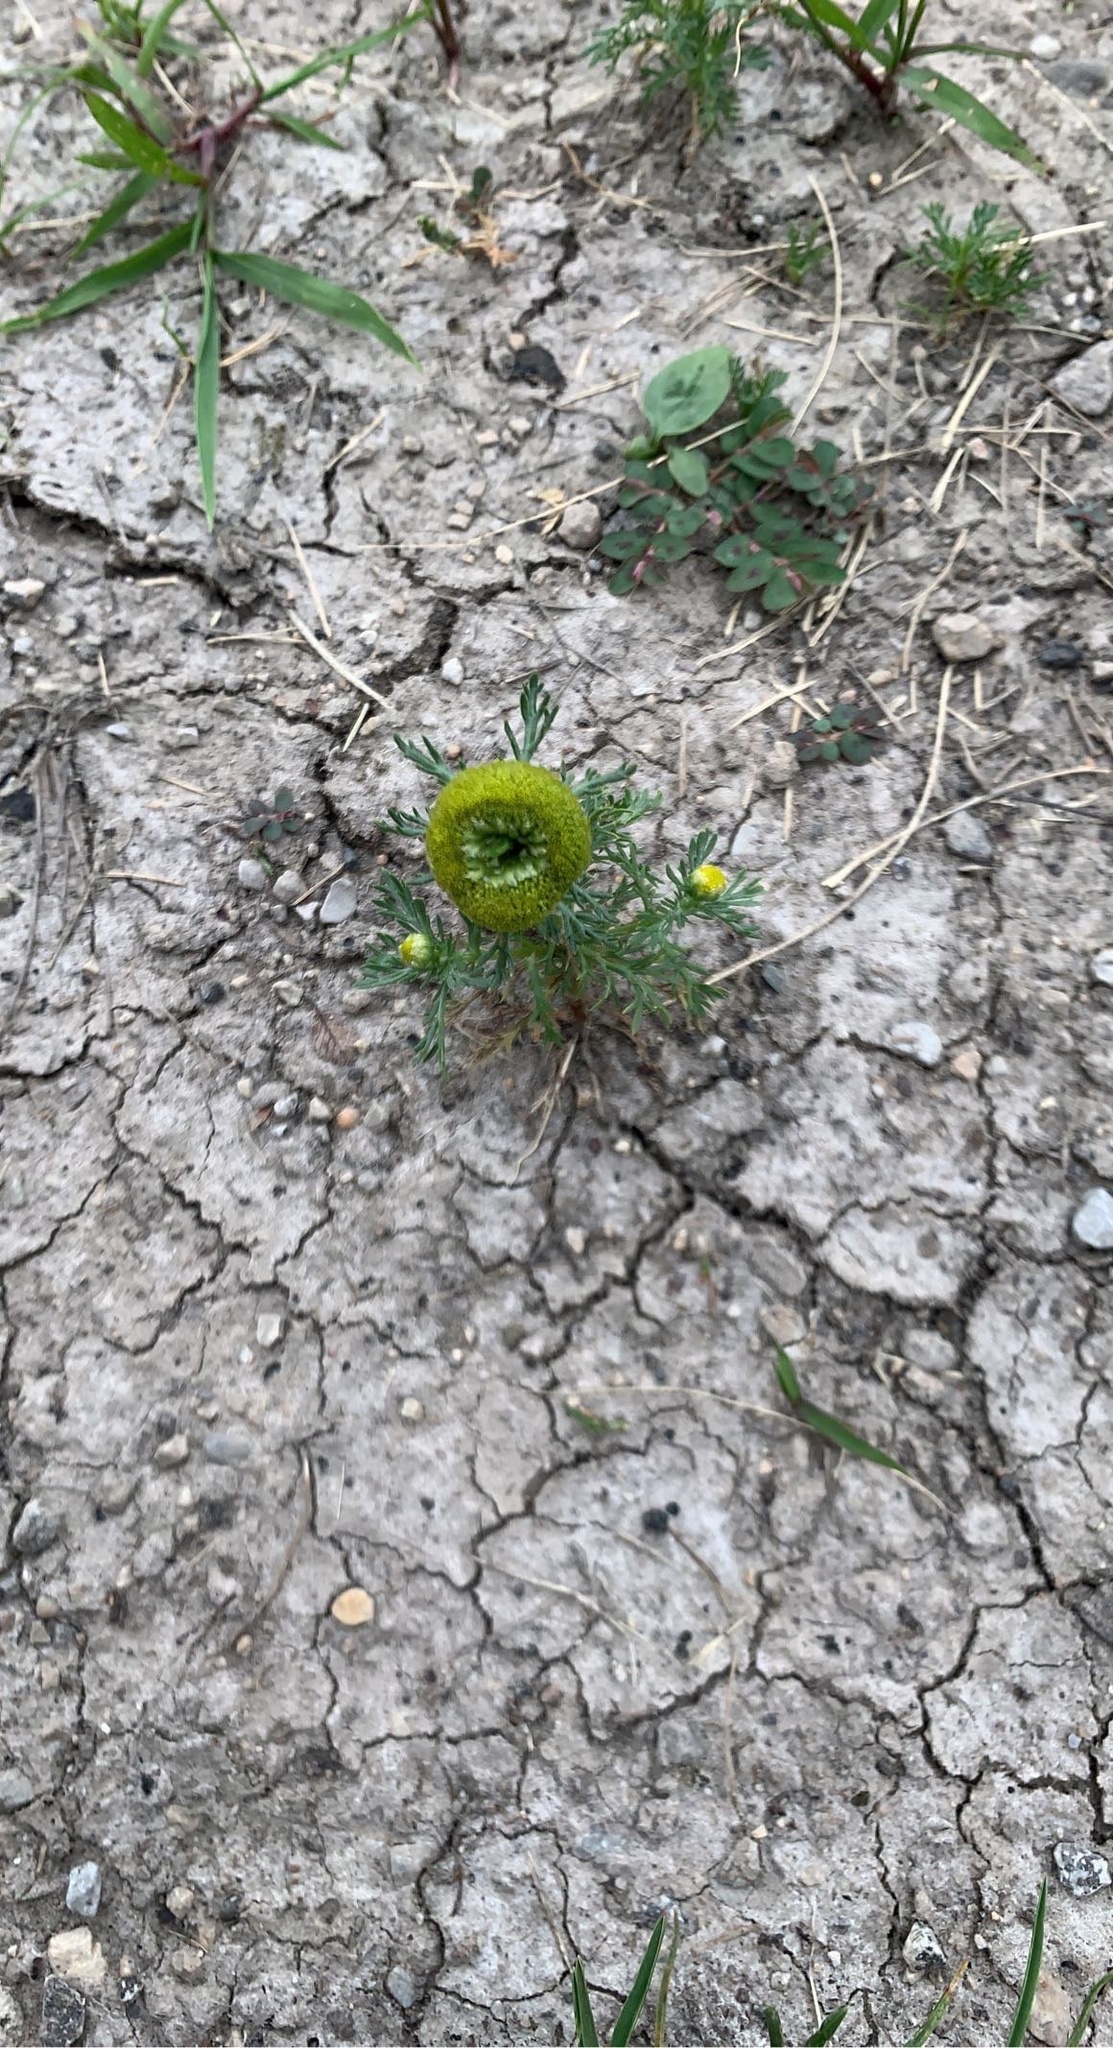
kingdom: Plantae
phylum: Tracheophyta
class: Magnoliopsida
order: Asterales
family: Asteraceae
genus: Matricaria
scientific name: Matricaria discoidea
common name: Disc mayweed
